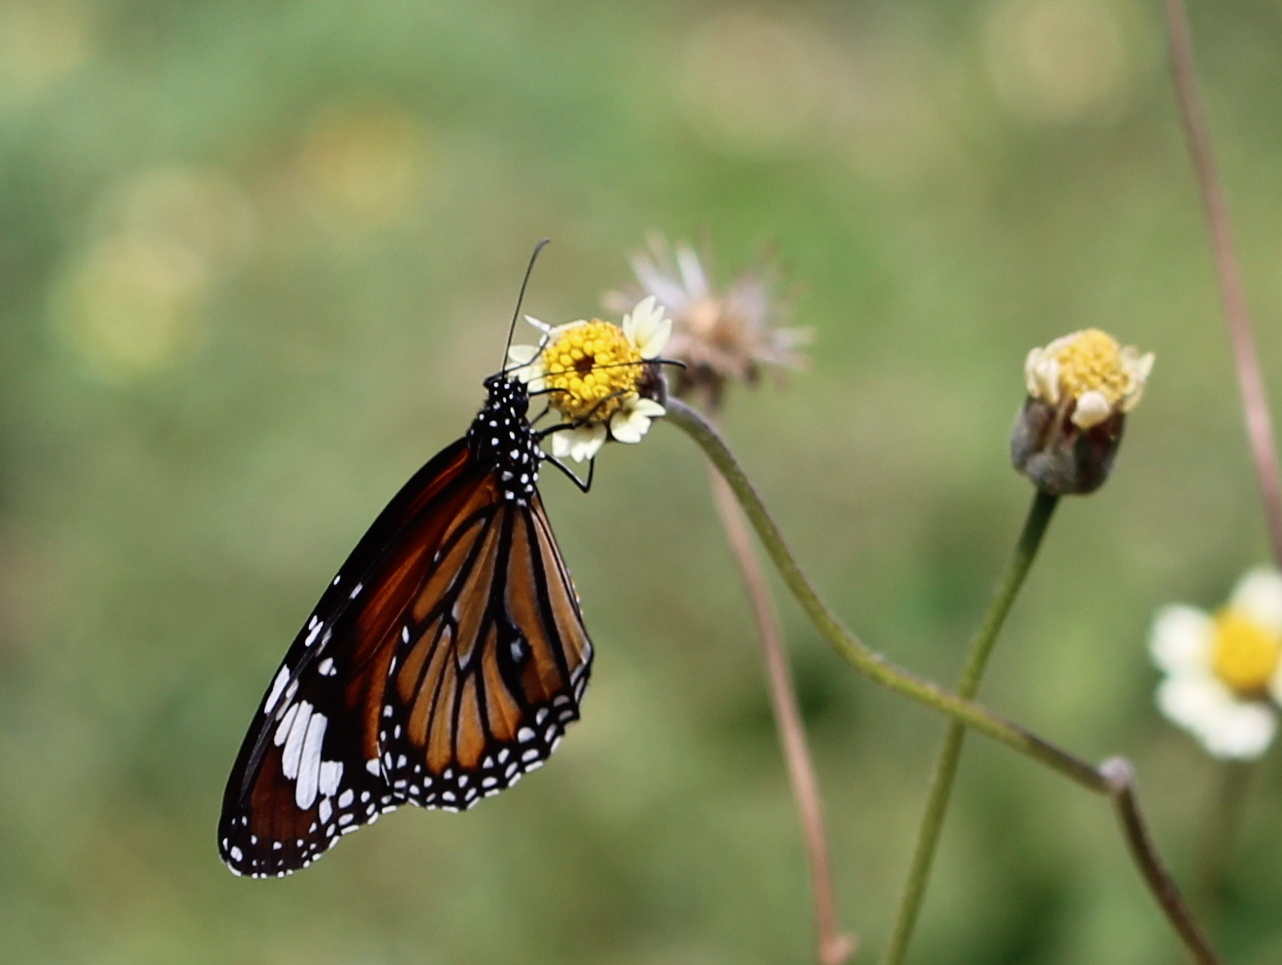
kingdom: Animalia
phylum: Arthropoda
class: Insecta
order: Lepidoptera
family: Nymphalidae
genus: Danaus
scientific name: Danaus genutia
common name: Common tiger butterfly
